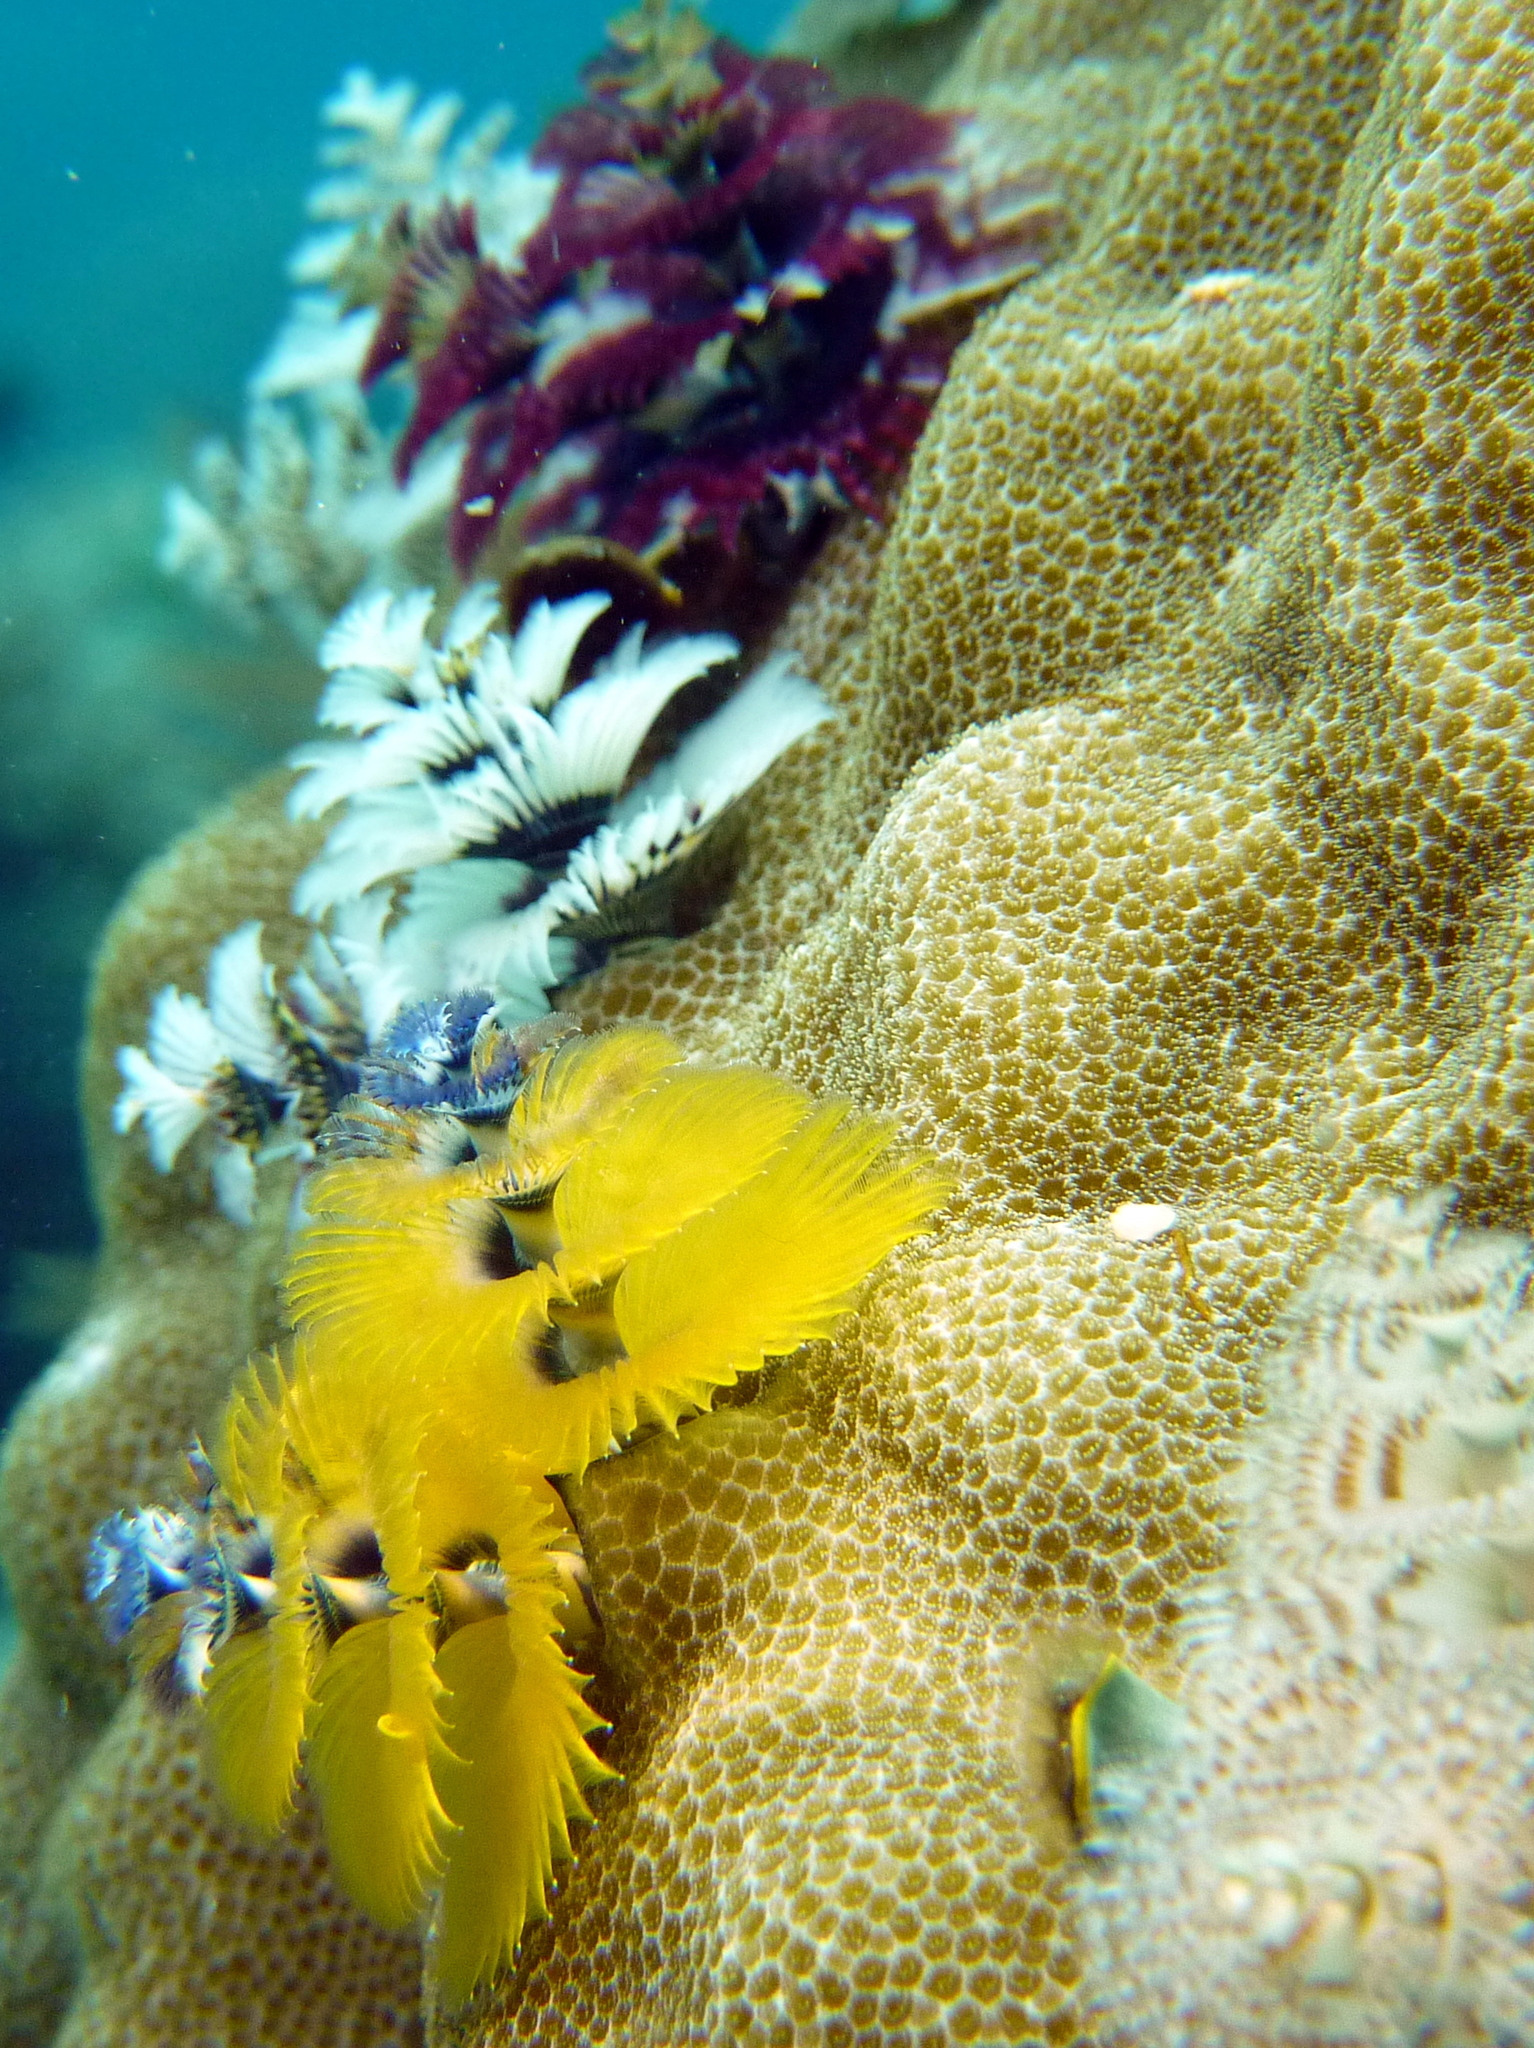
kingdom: Animalia
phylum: Annelida
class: Polychaeta
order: Sabellida
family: Serpulidae
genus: Spirobranchus
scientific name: Spirobranchus corniculatus
